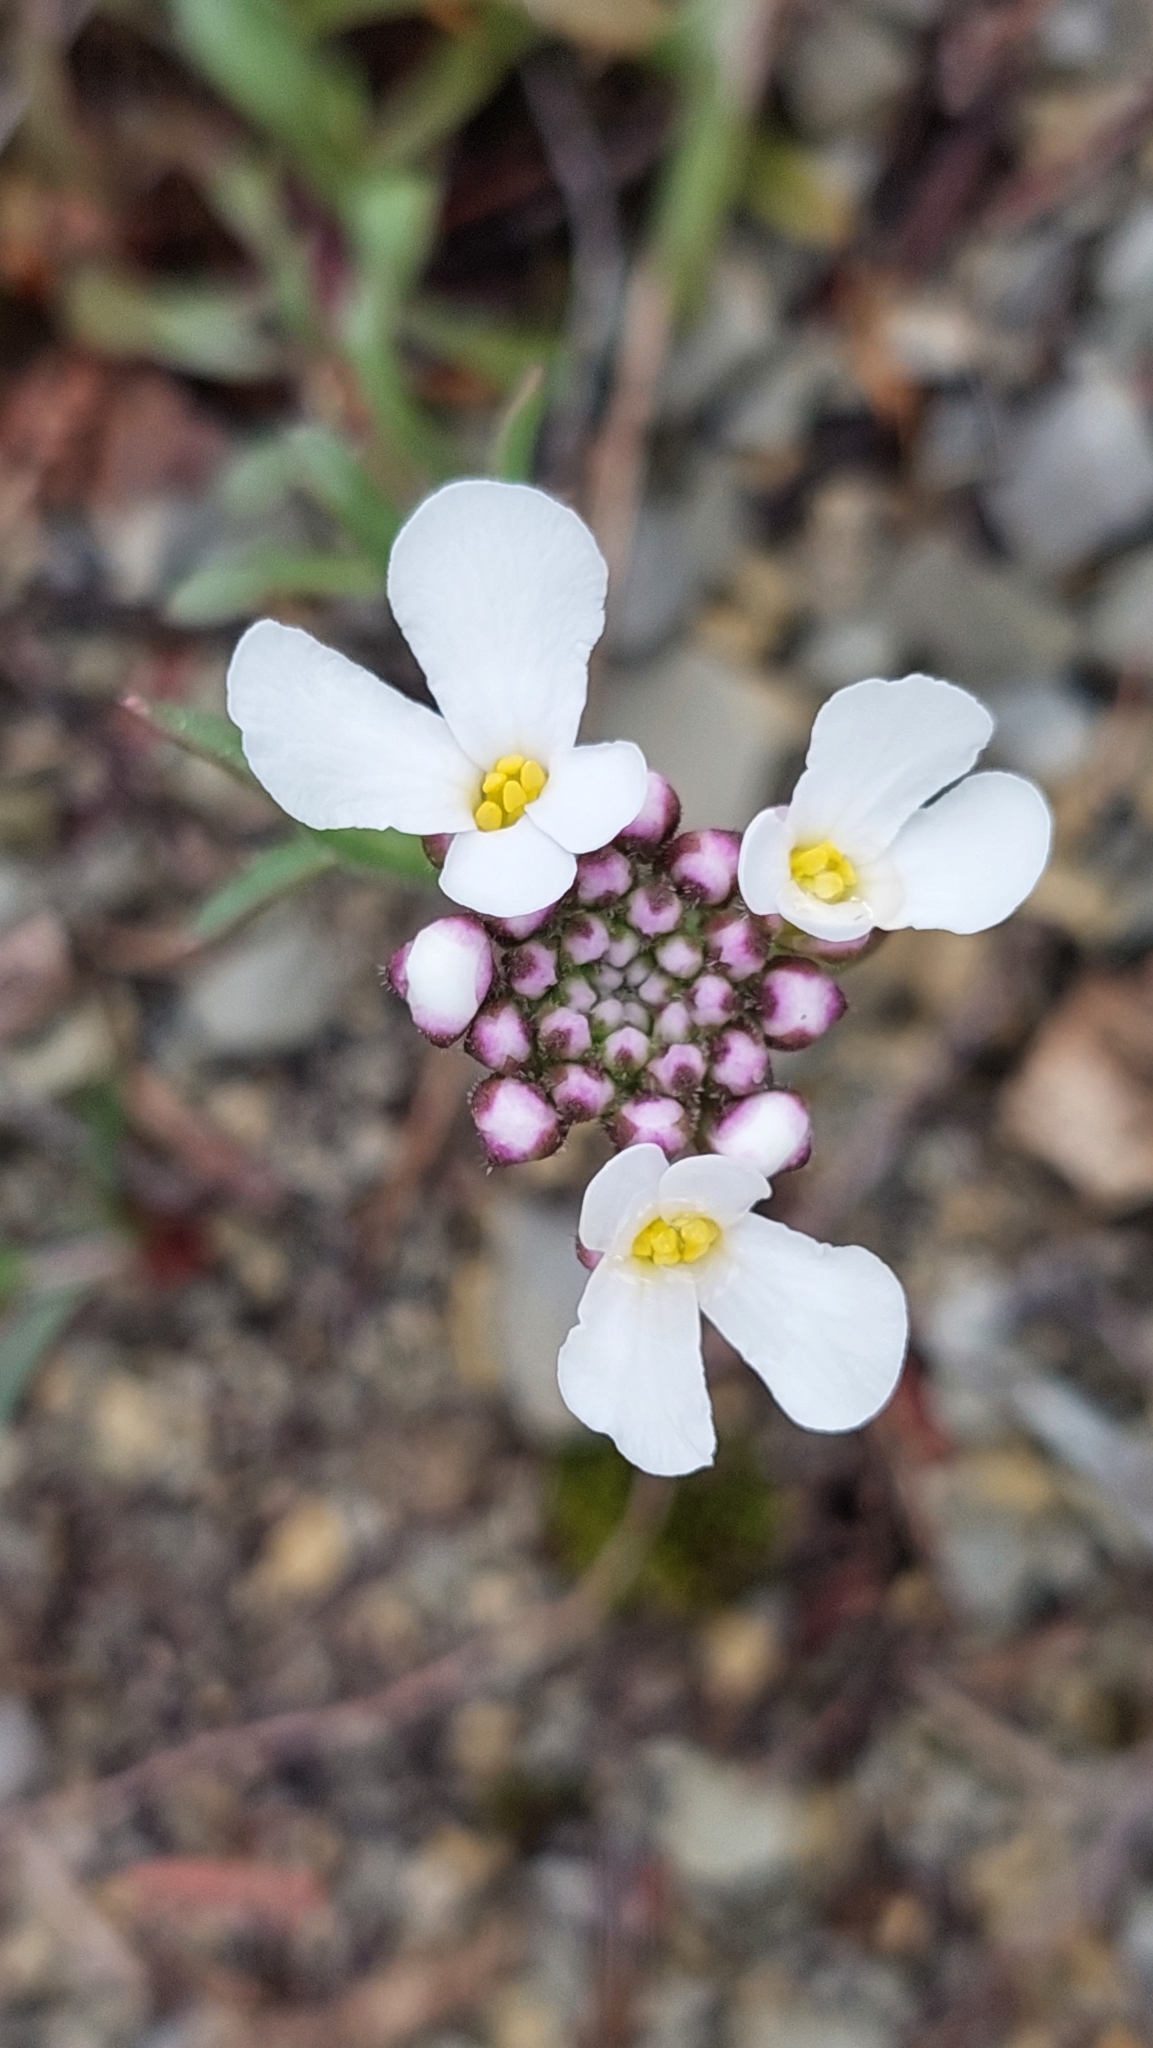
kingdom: Plantae
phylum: Tracheophyta
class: Magnoliopsida
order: Brassicales
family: Brassicaceae
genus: Iberis
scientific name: Iberis simplex
